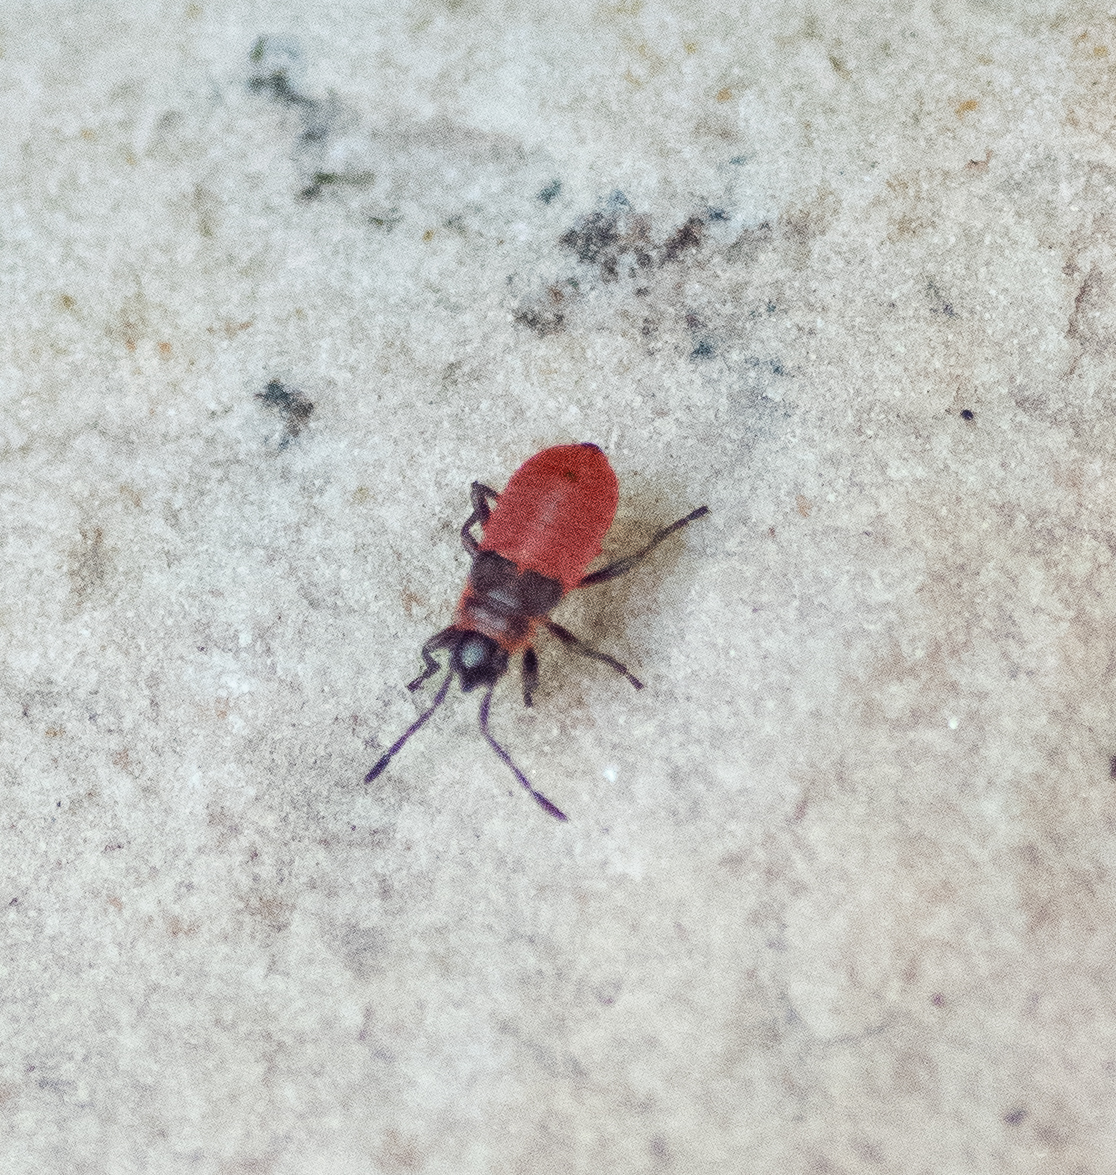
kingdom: Animalia
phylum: Arthropoda
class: Insecta
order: Hemiptera
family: Pyrrhocoridae
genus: Pyrrhocoris
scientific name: Pyrrhocoris apterus
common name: Firebug
